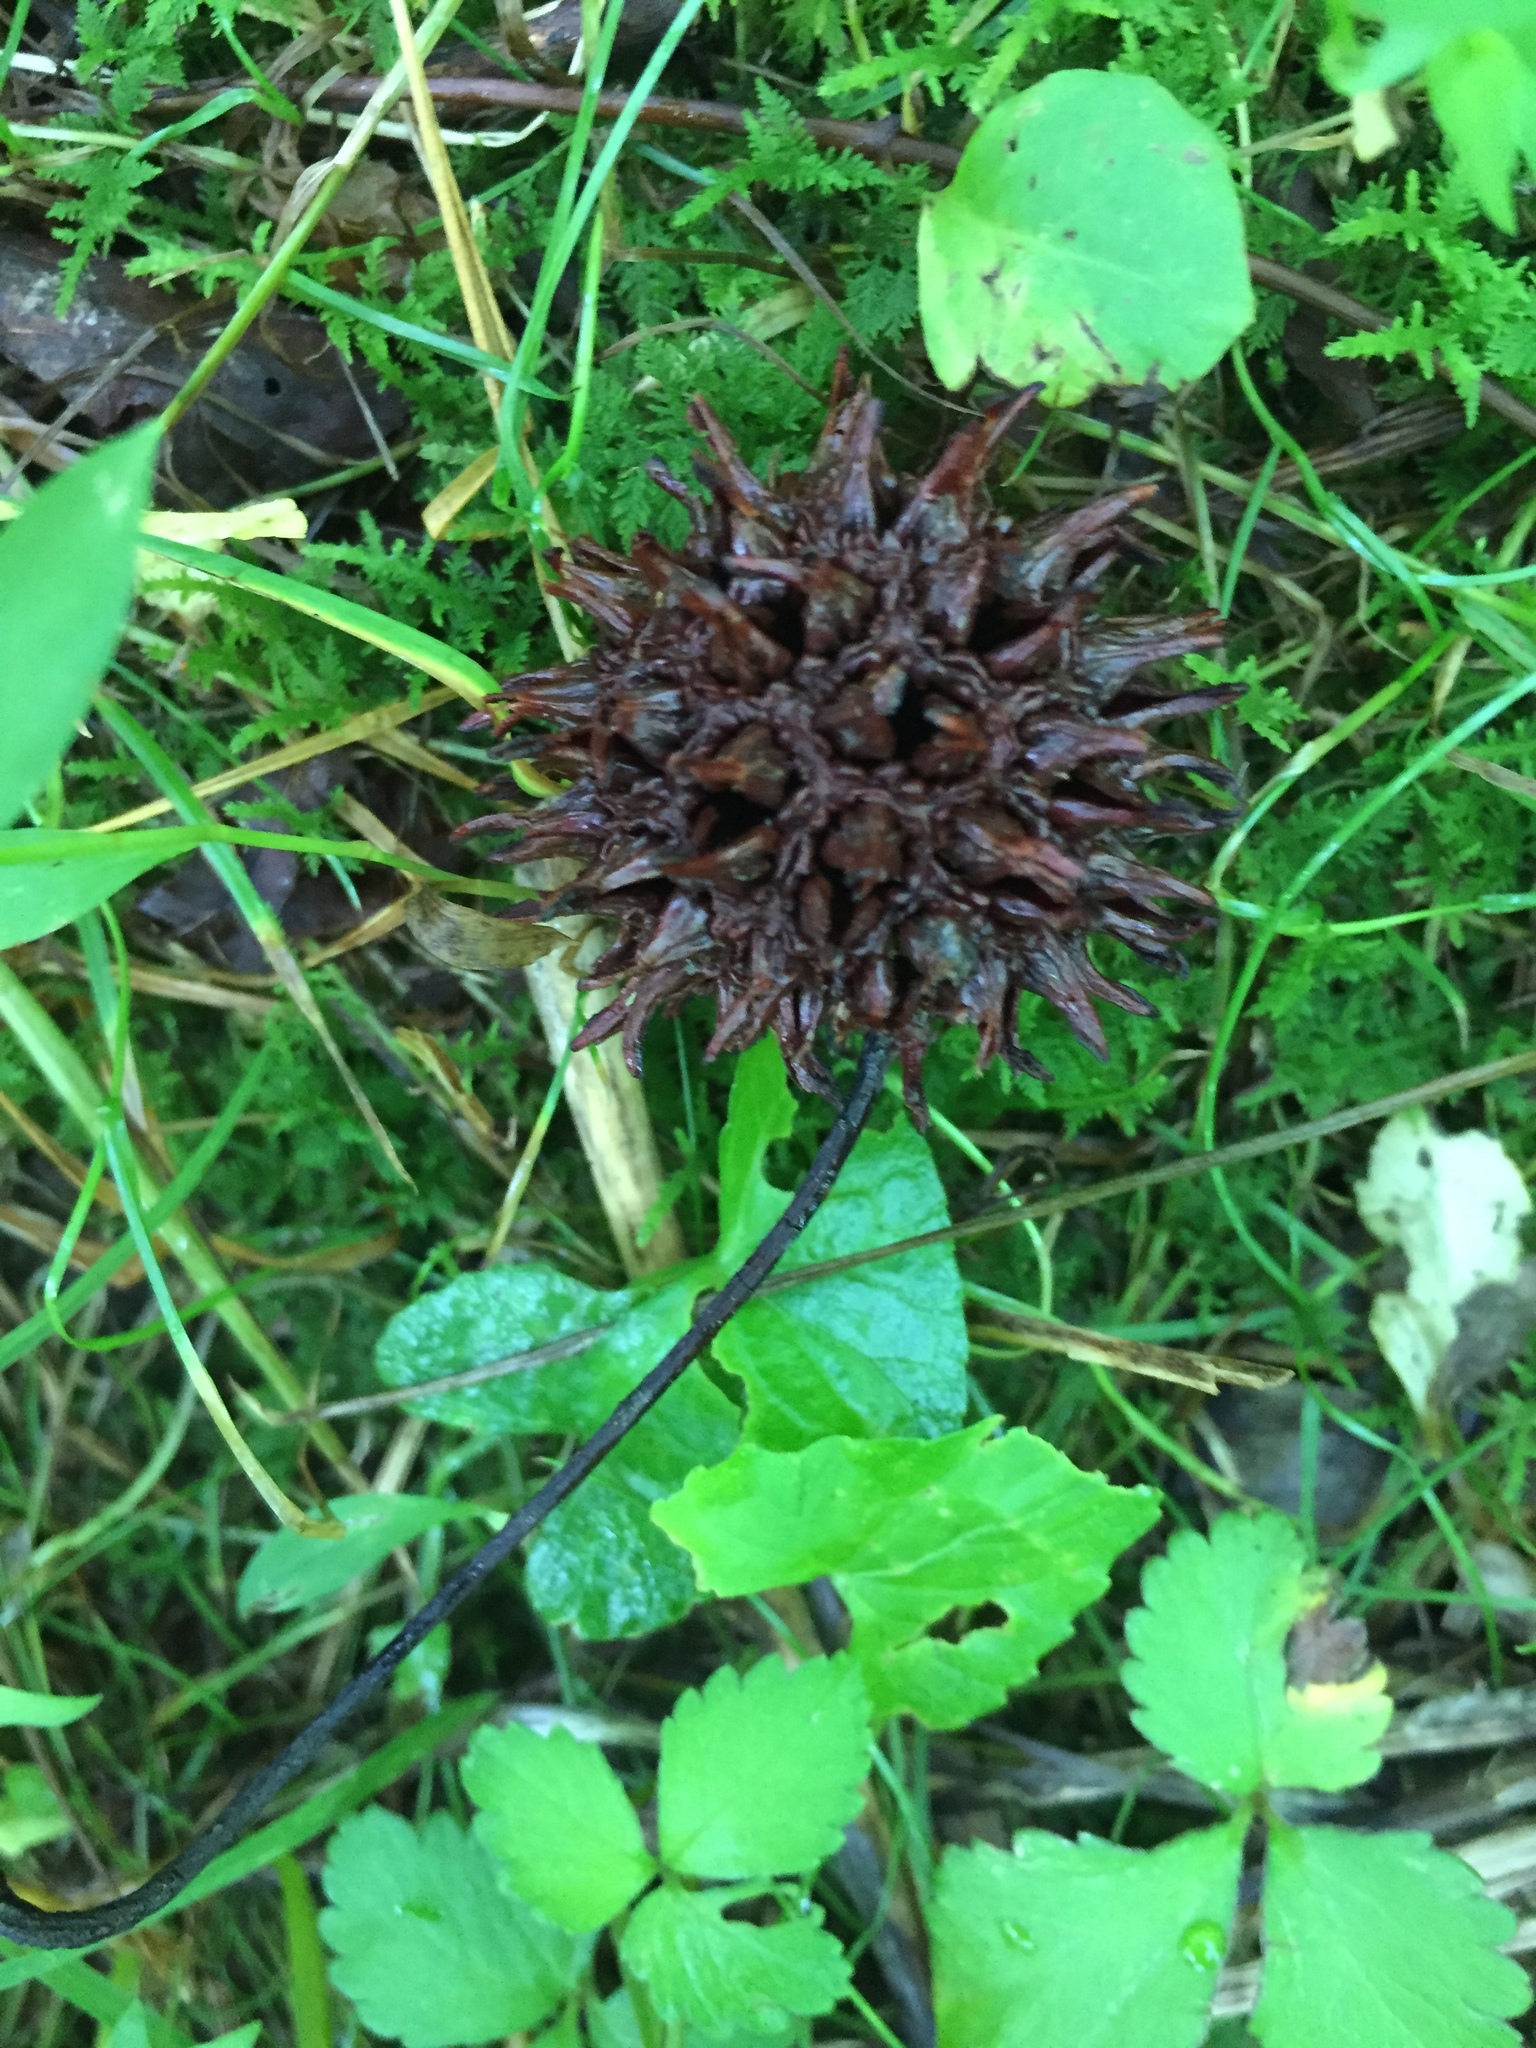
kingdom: Plantae
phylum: Tracheophyta
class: Magnoliopsida
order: Saxifragales
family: Altingiaceae
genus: Liquidambar
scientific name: Liquidambar styraciflua
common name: Sweet gum
